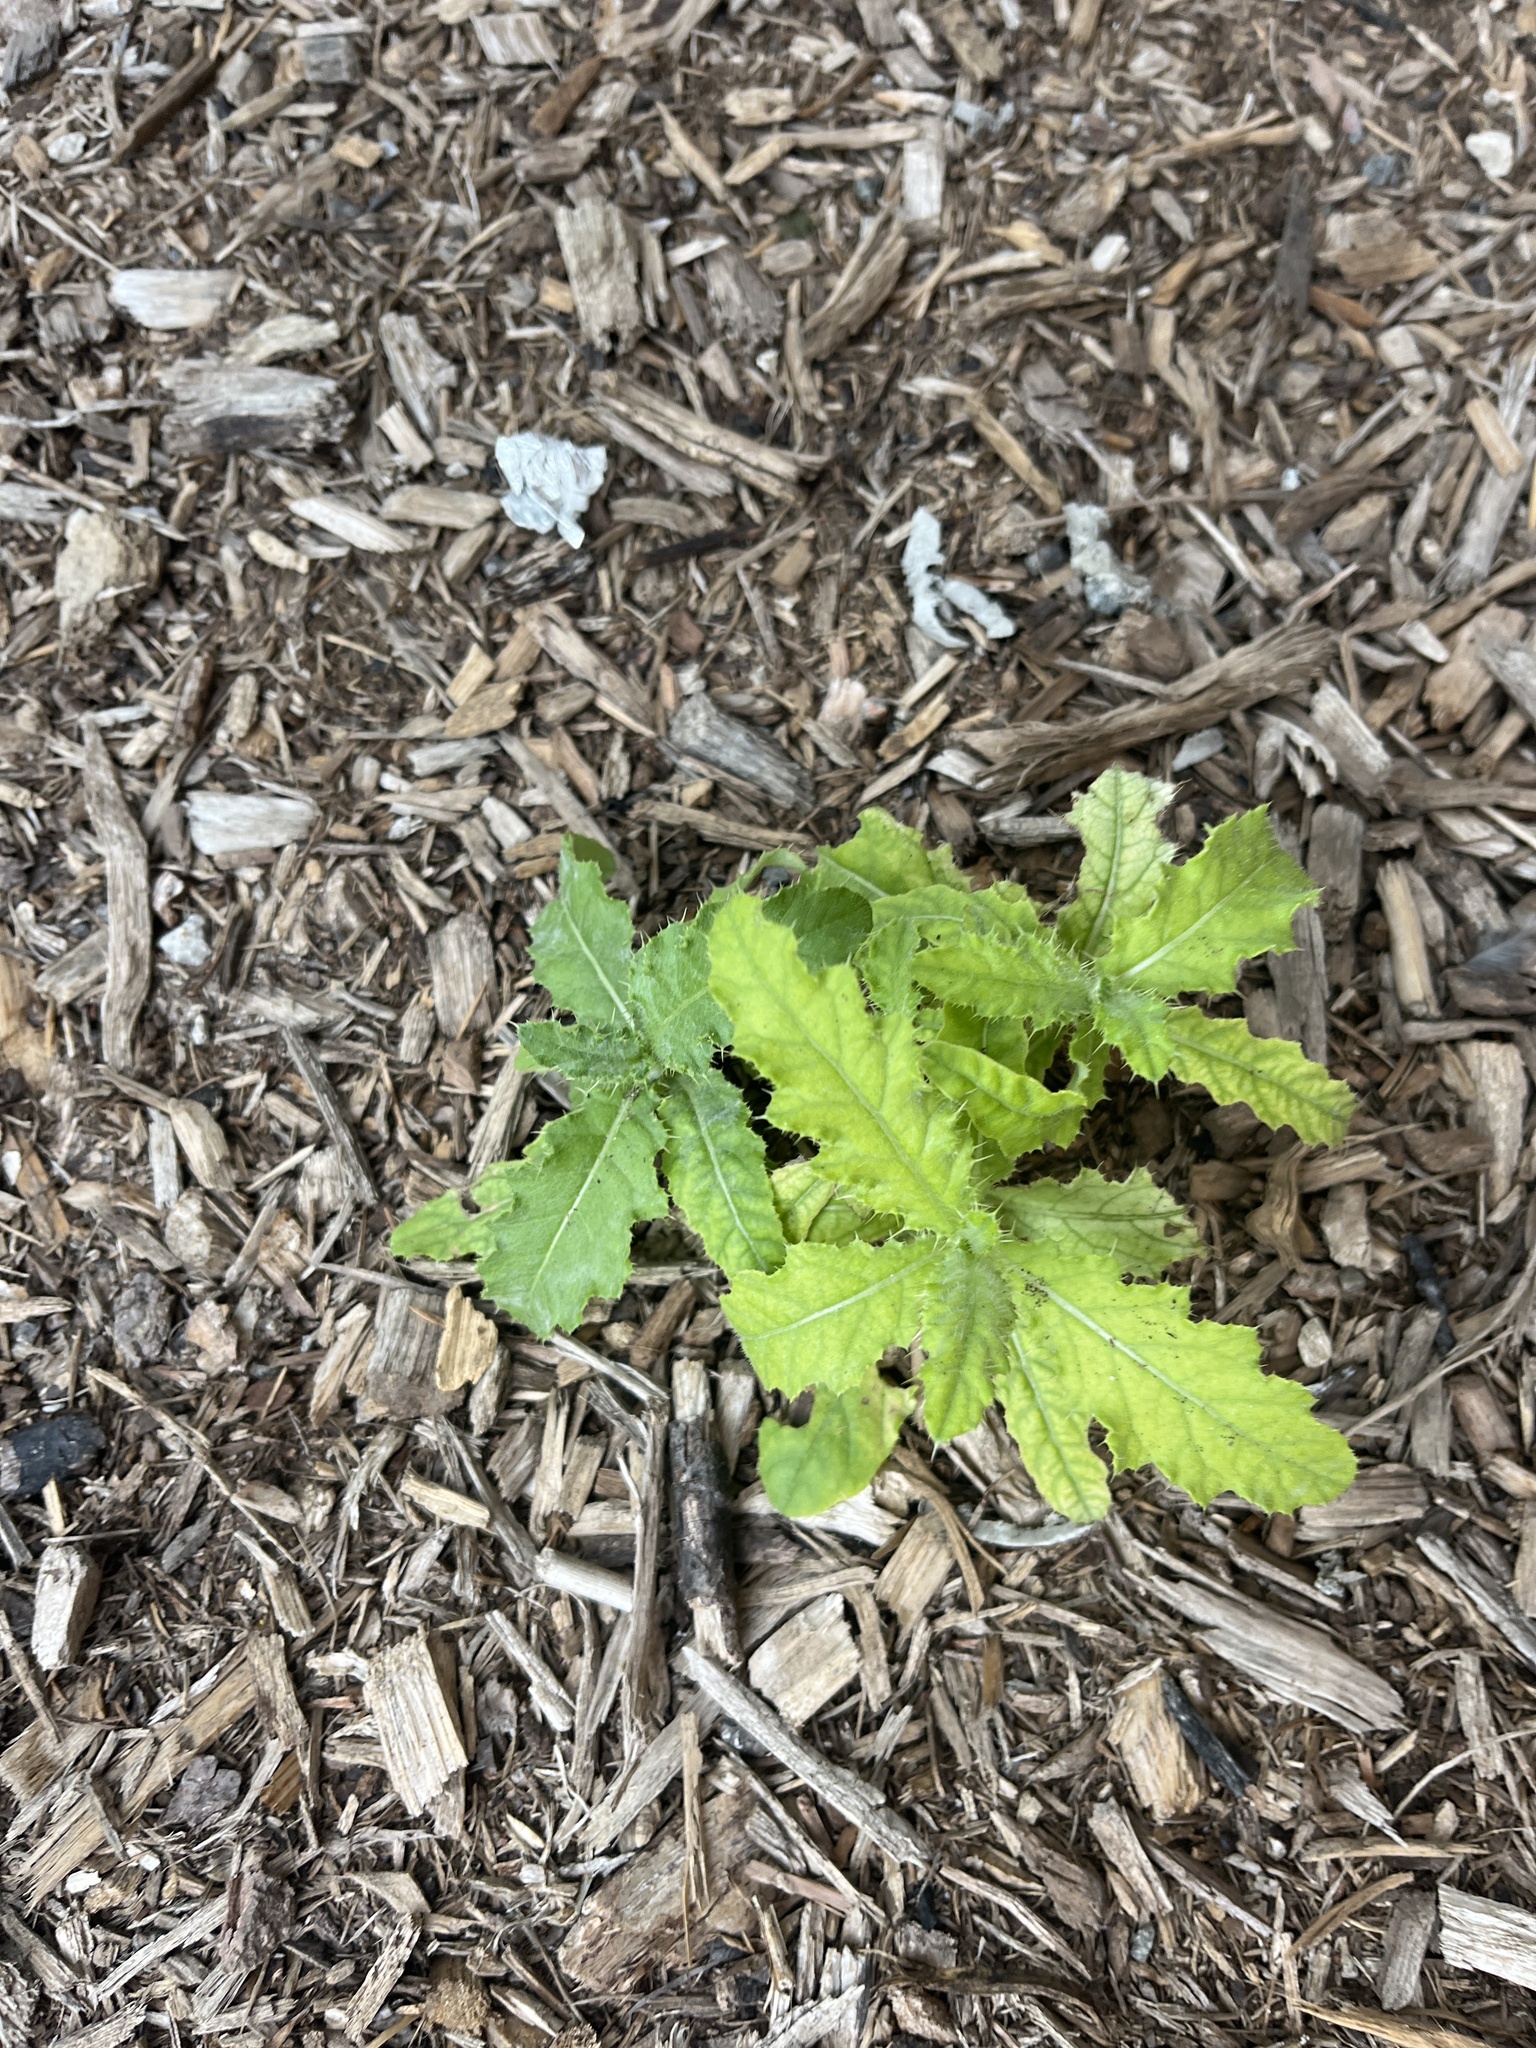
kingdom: Plantae
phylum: Tracheophyta
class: Magnoliopsida
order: Asterales
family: Asteraceae
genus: Cirsium
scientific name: Cirsium arvense
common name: Creeping thistle
